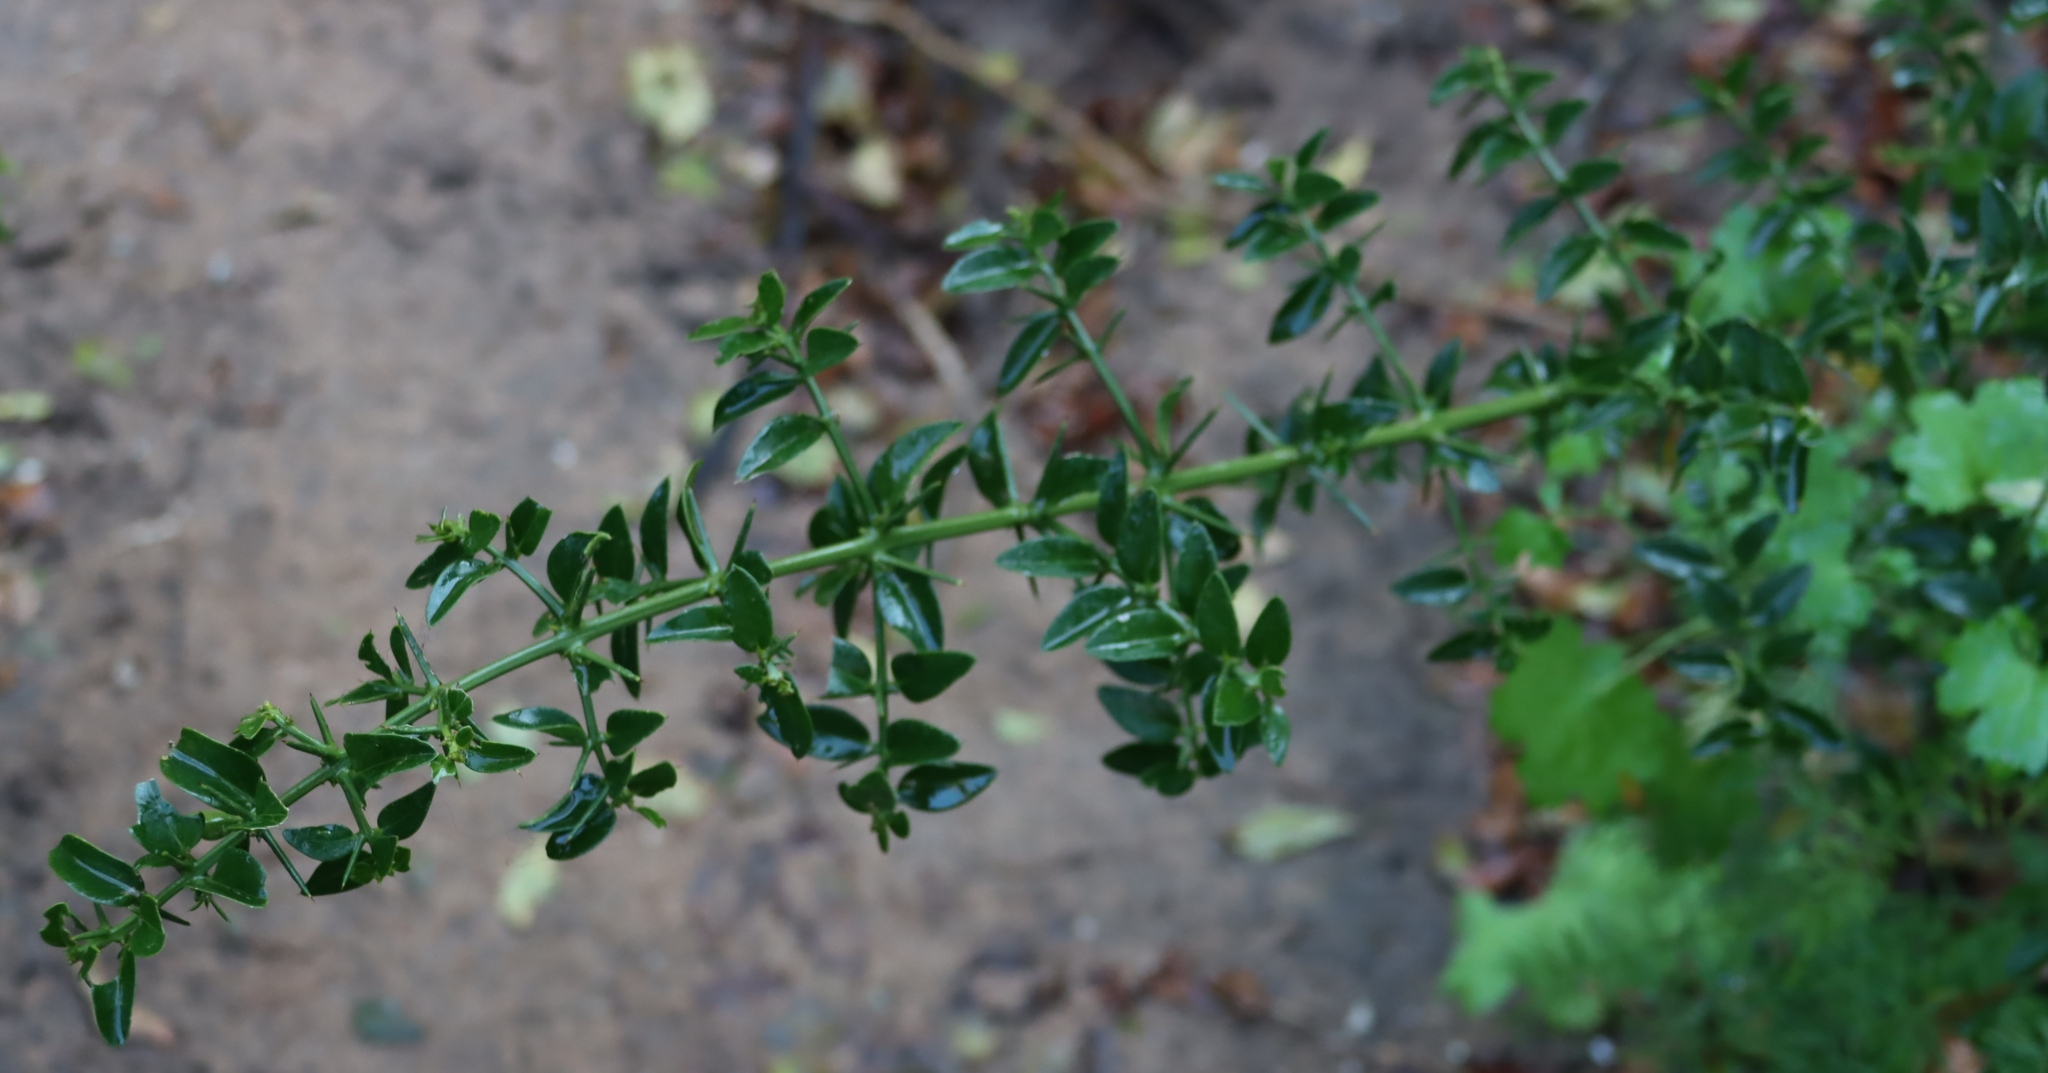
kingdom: Plantae
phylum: Tracheophyta
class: Magnoliopsida
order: Brassicales
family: Salvadoraceae
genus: Azima
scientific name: Azima tetracantha
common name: Needle bush
